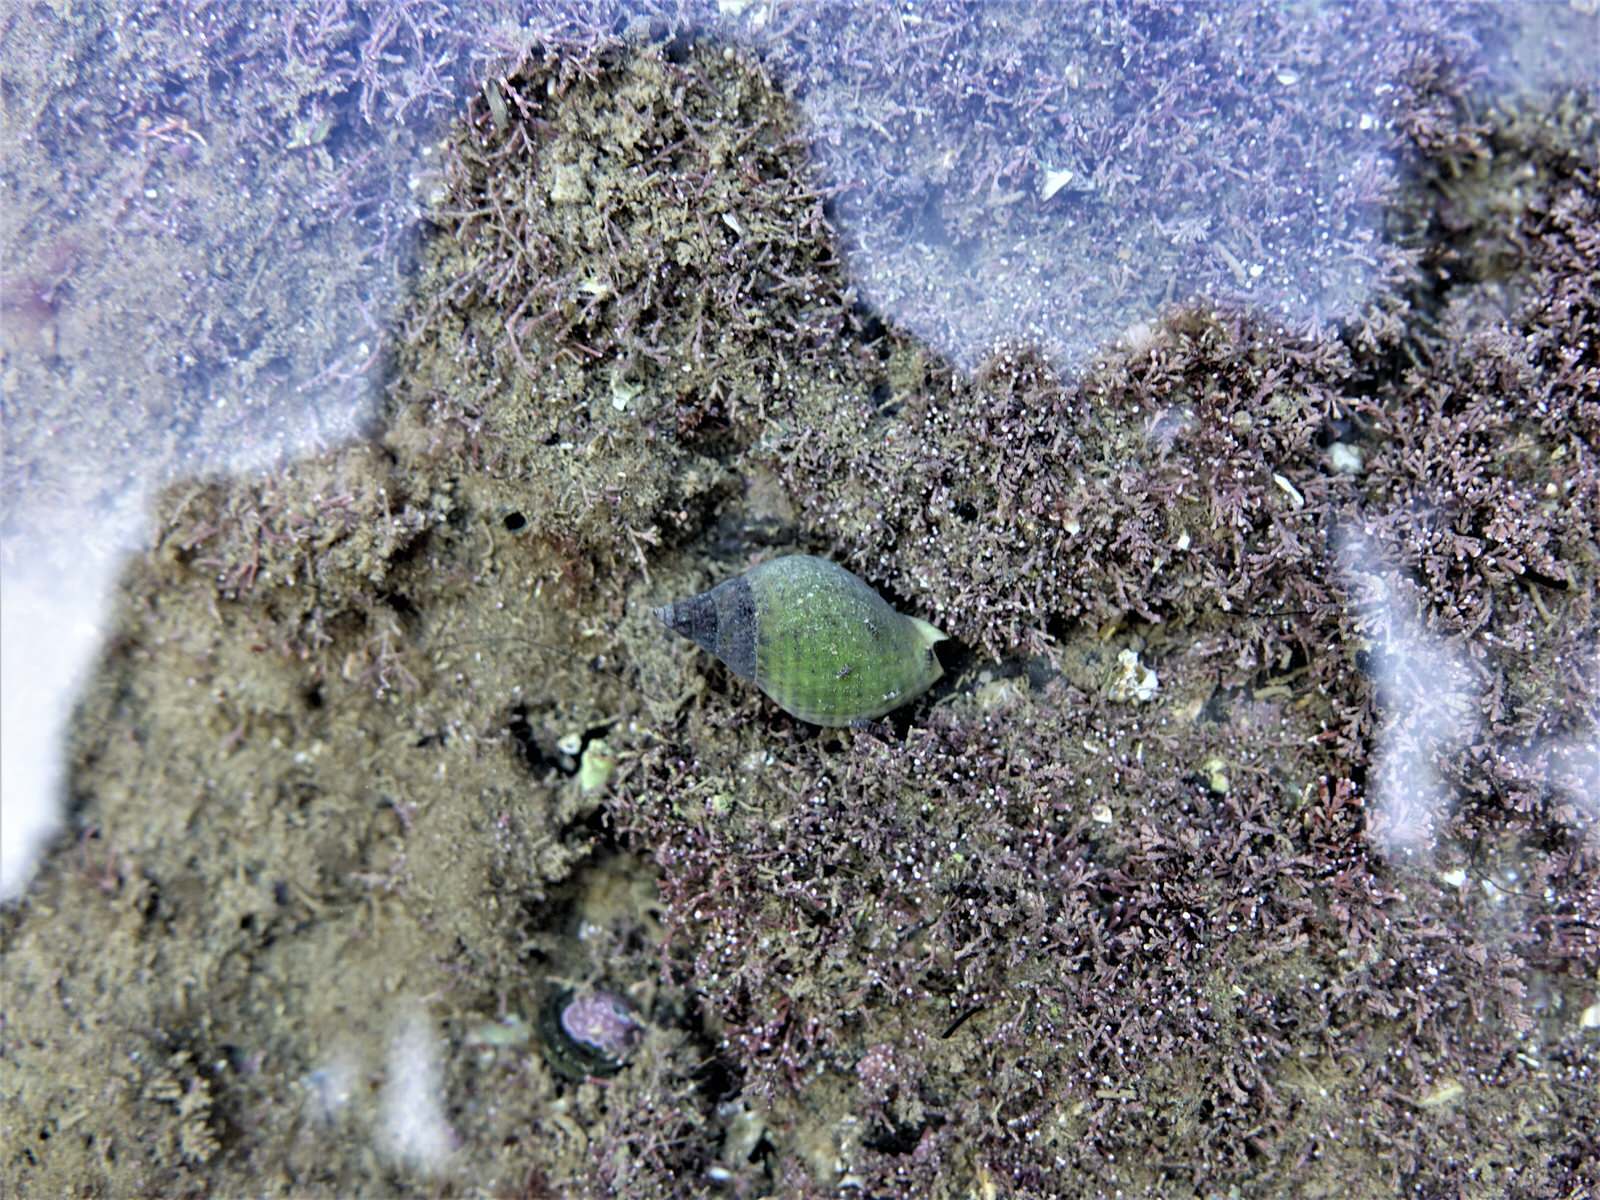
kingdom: Animalia
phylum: Mollusca
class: Gastropoda
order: Neogastropoda
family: Cominellidae
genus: Cominella
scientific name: Cominella adspersa
